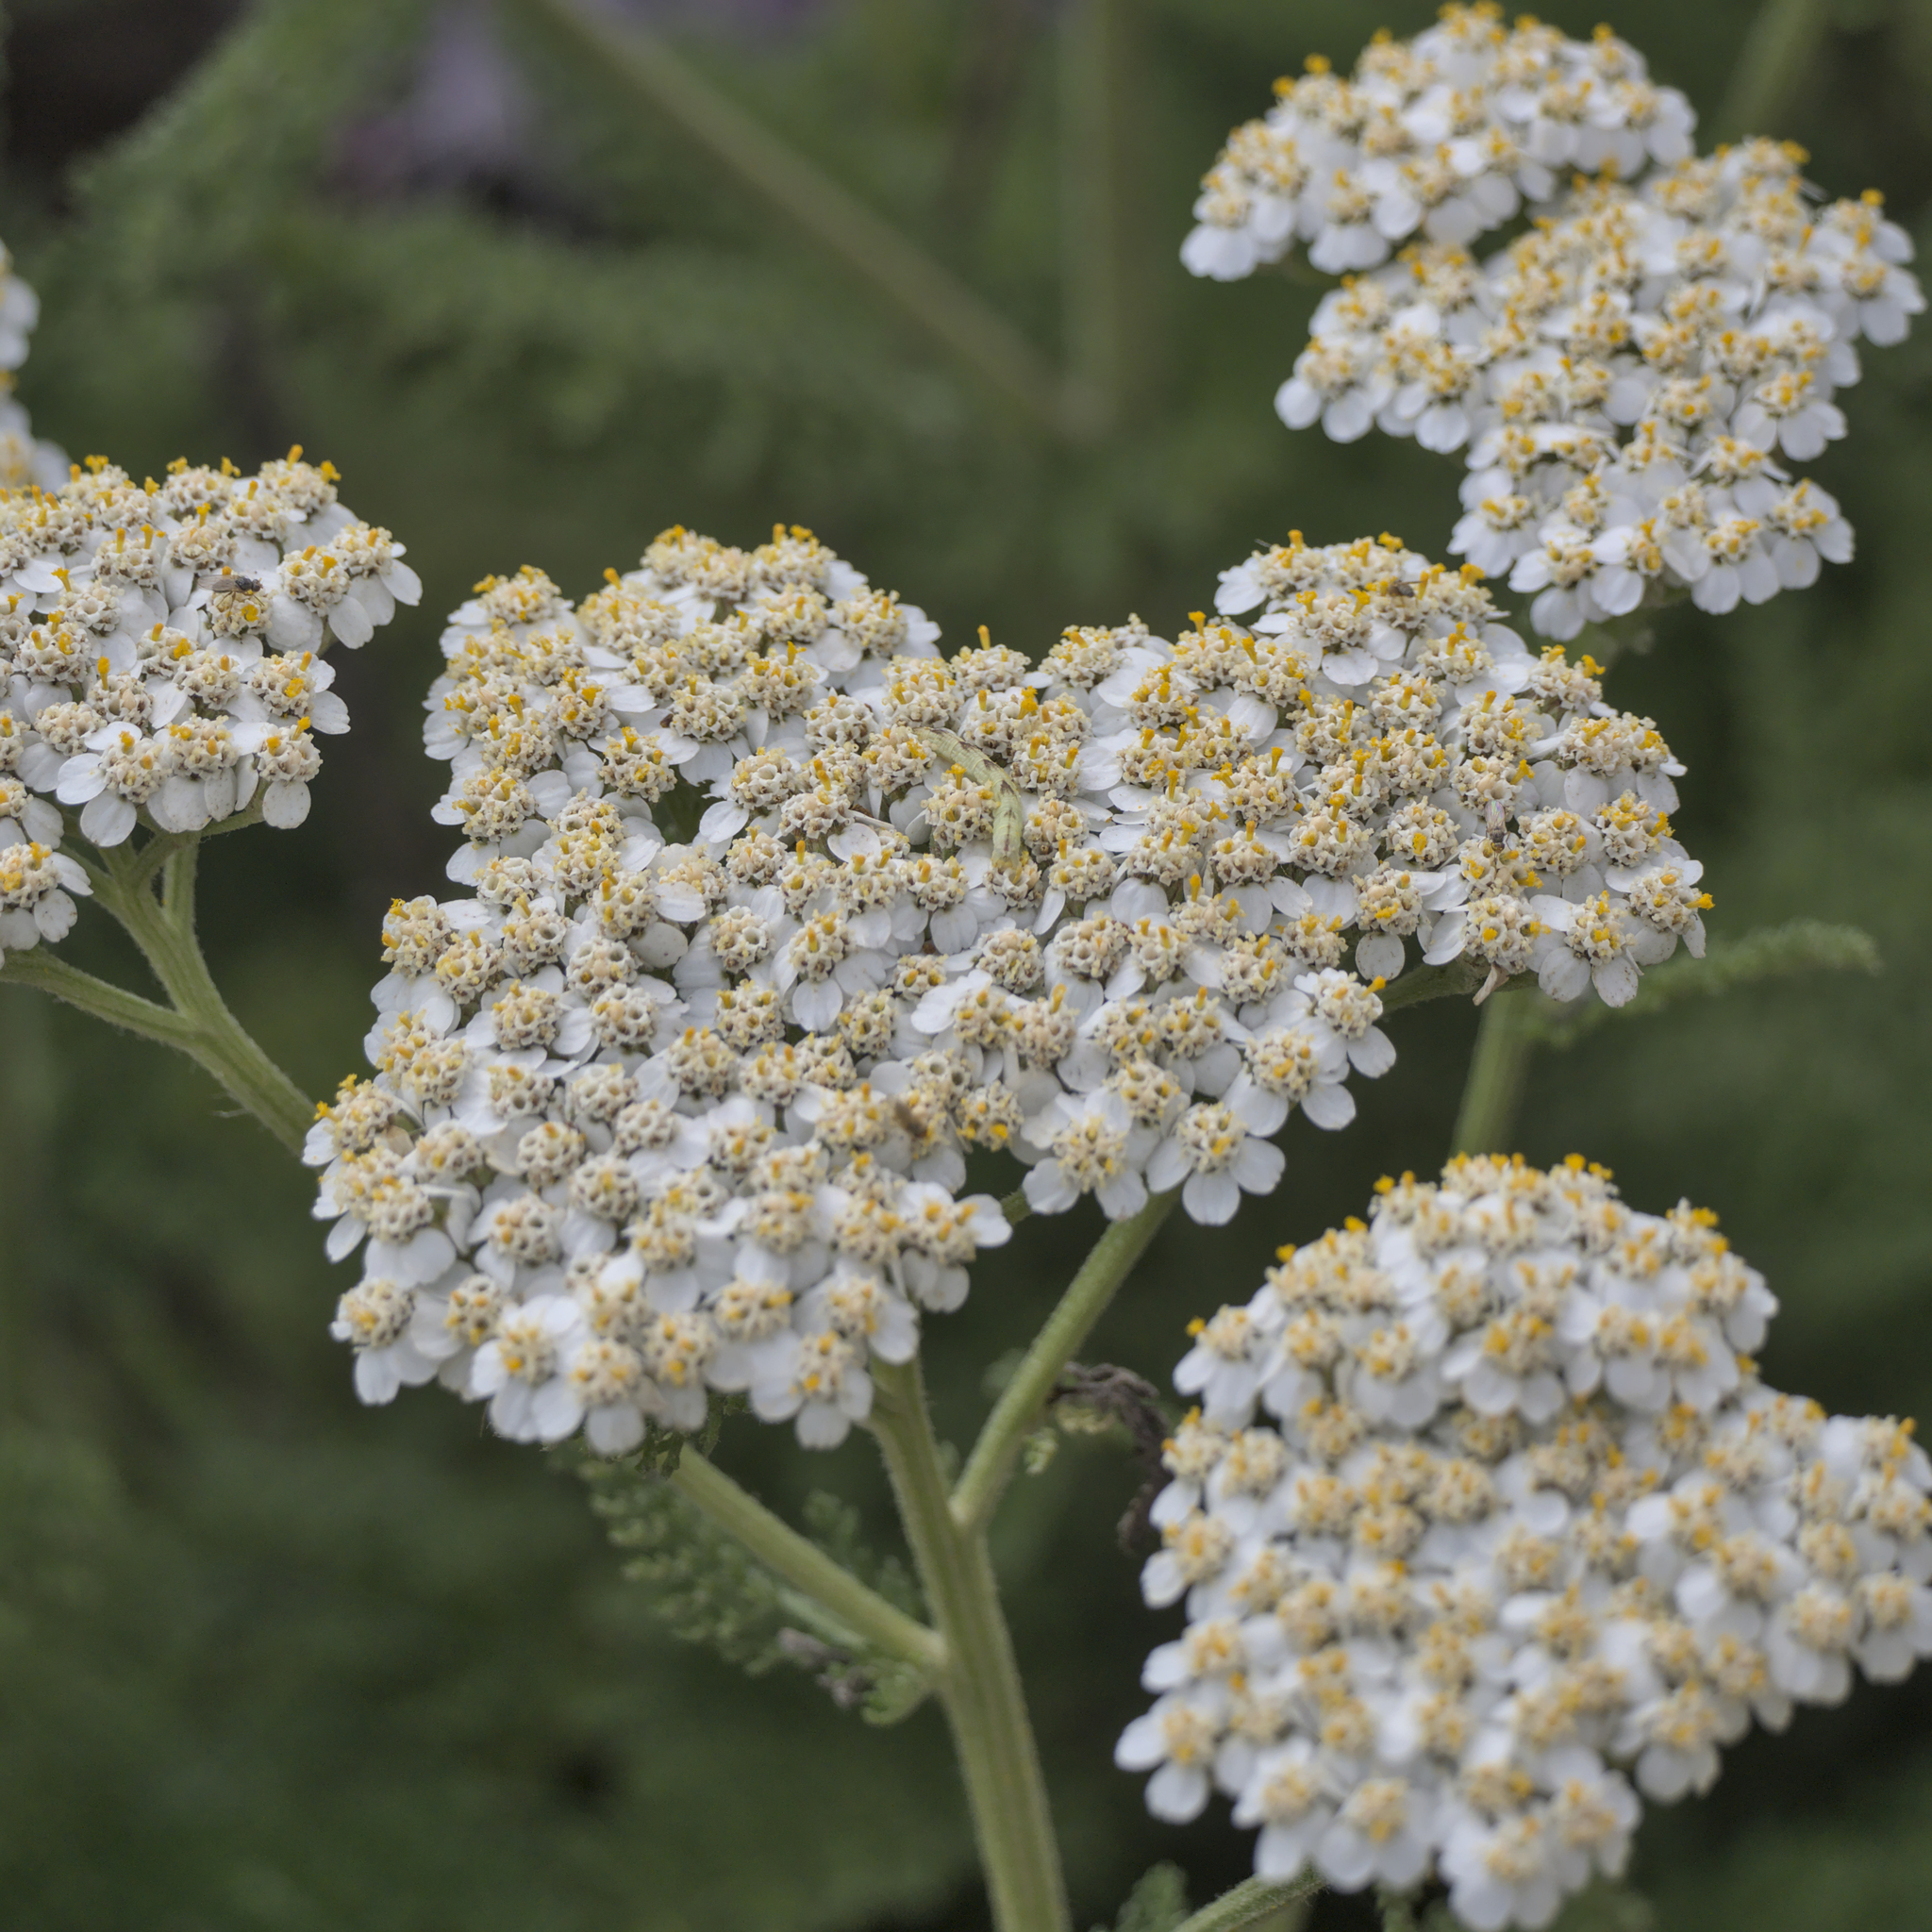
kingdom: Plantae
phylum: Tracheophyta
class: Magnoliopsida
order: Asterales
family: Asteraceae
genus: Achillea
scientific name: Achillea millefolium
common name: Yarrow
